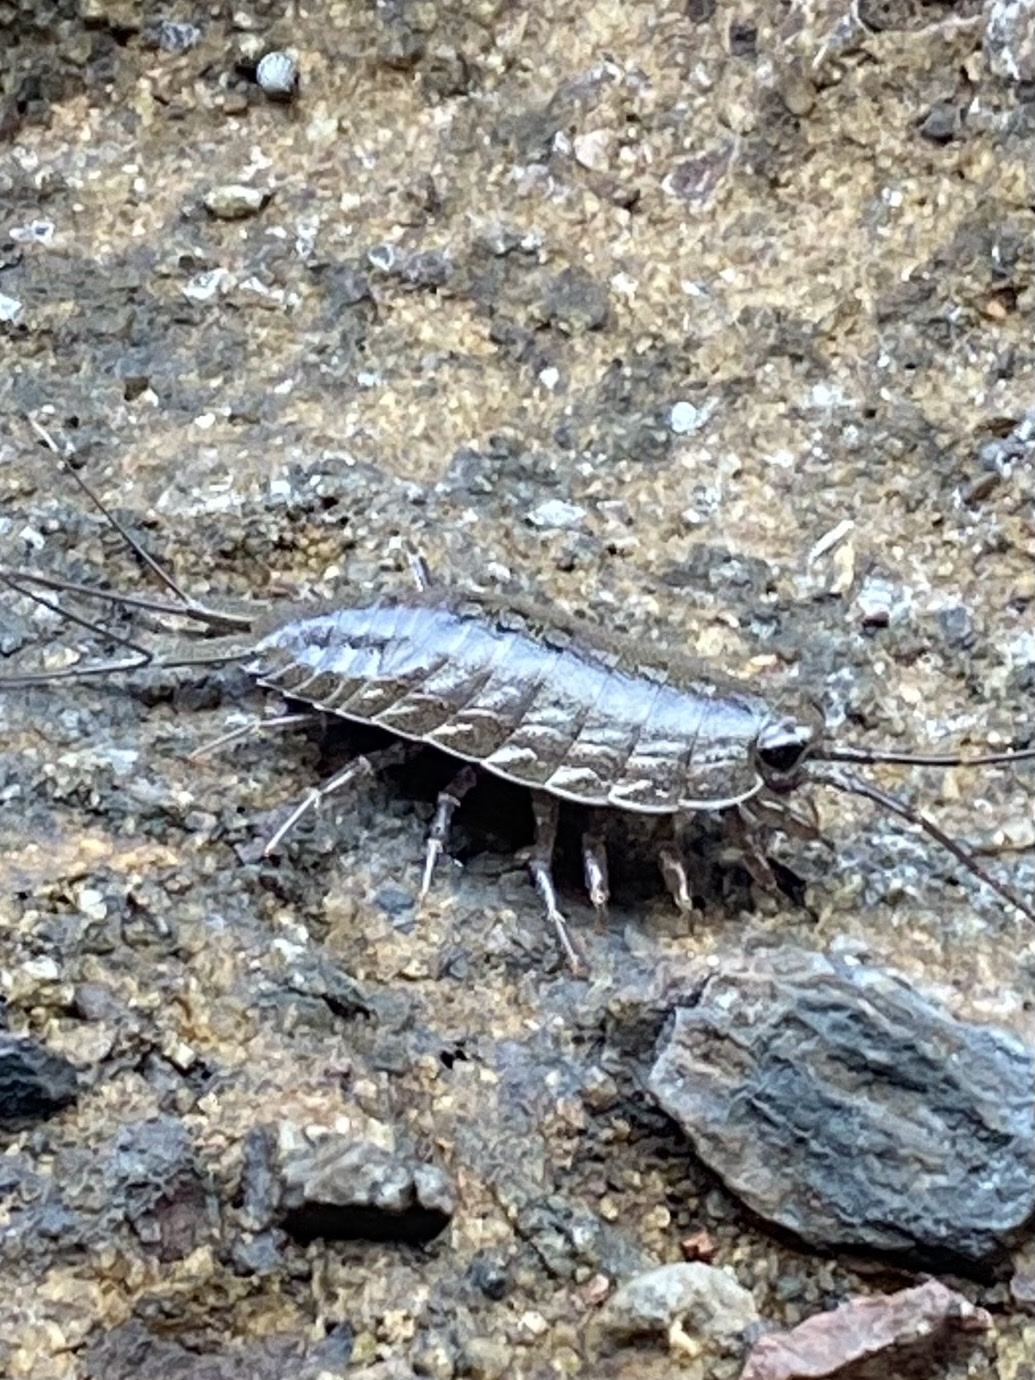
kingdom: Animalia
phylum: Arthropoda
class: Malacostraca
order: Isopoda
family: Ligiidae
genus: Ligia
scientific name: Ligia occidentalis
